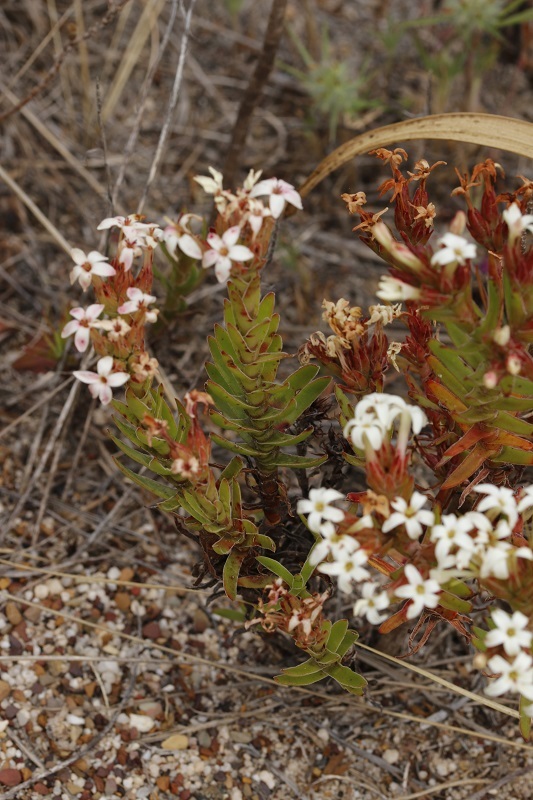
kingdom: Plantae
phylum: Tracheophyta
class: Magnoliopsida
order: Saxifragales
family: Crassulaceae
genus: Crassula
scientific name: Crassula fascicularis
